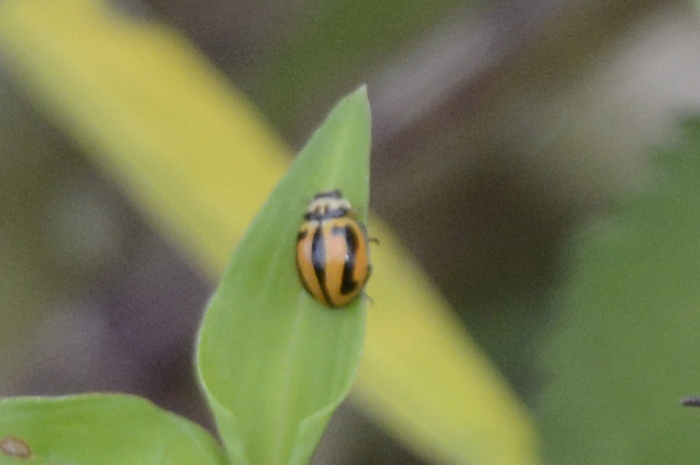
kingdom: Animalia
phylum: Arthropoda
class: Insecta
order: Coleoptera
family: Coccinellidae
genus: Micraspis
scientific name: Micraspis frenata
